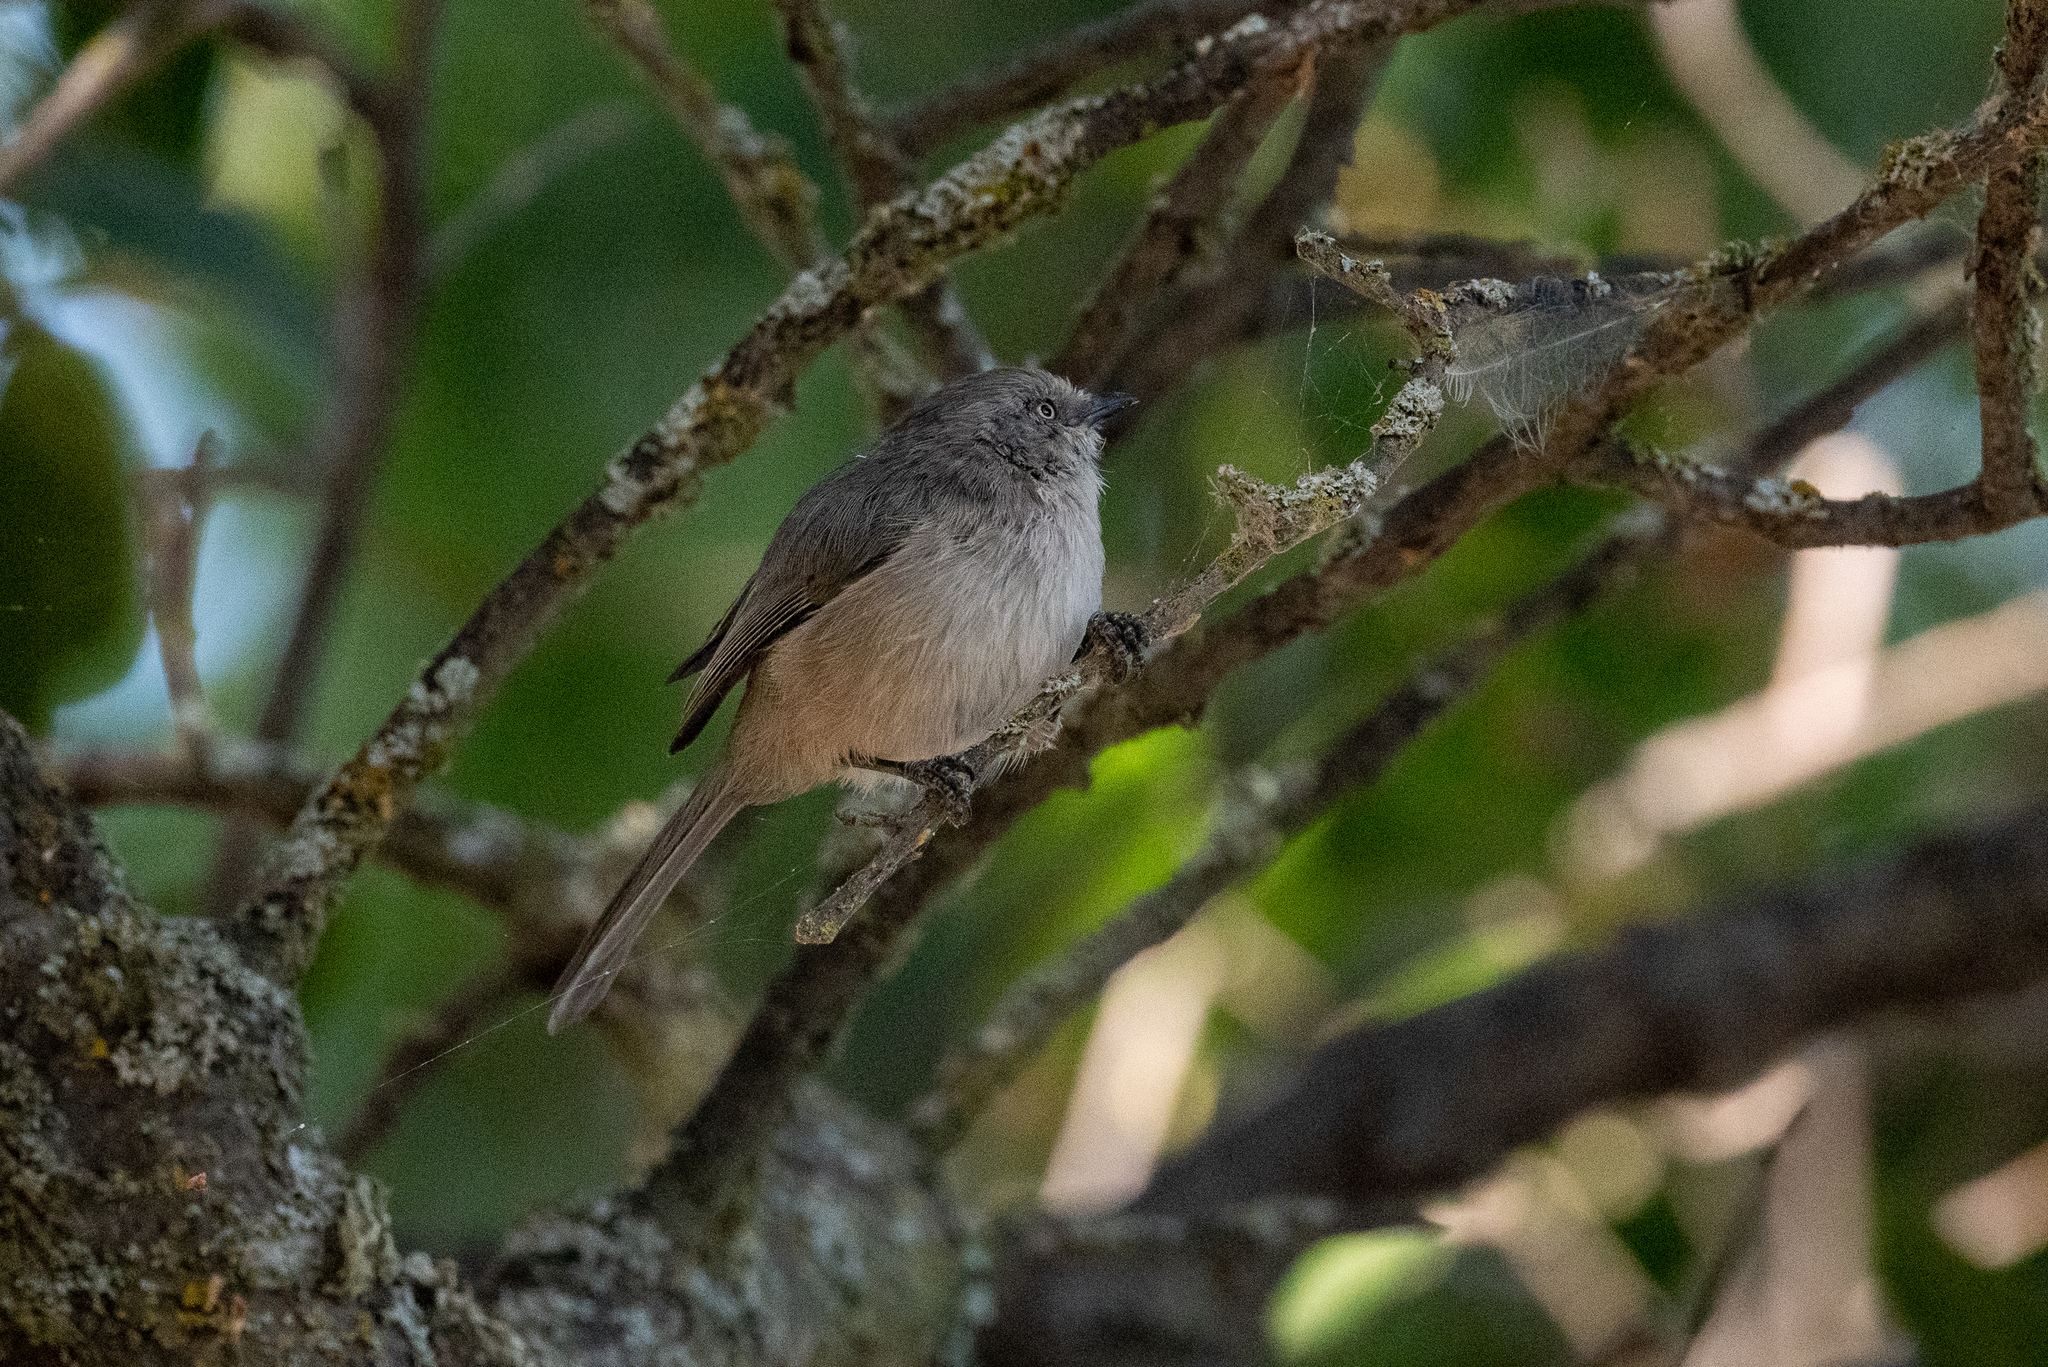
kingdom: Animalia
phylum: Chordata
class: Aves
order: Passeriformes
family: Aegithalidae
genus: Psaltriparus
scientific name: Psaltriparus minimus
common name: American bushtit
